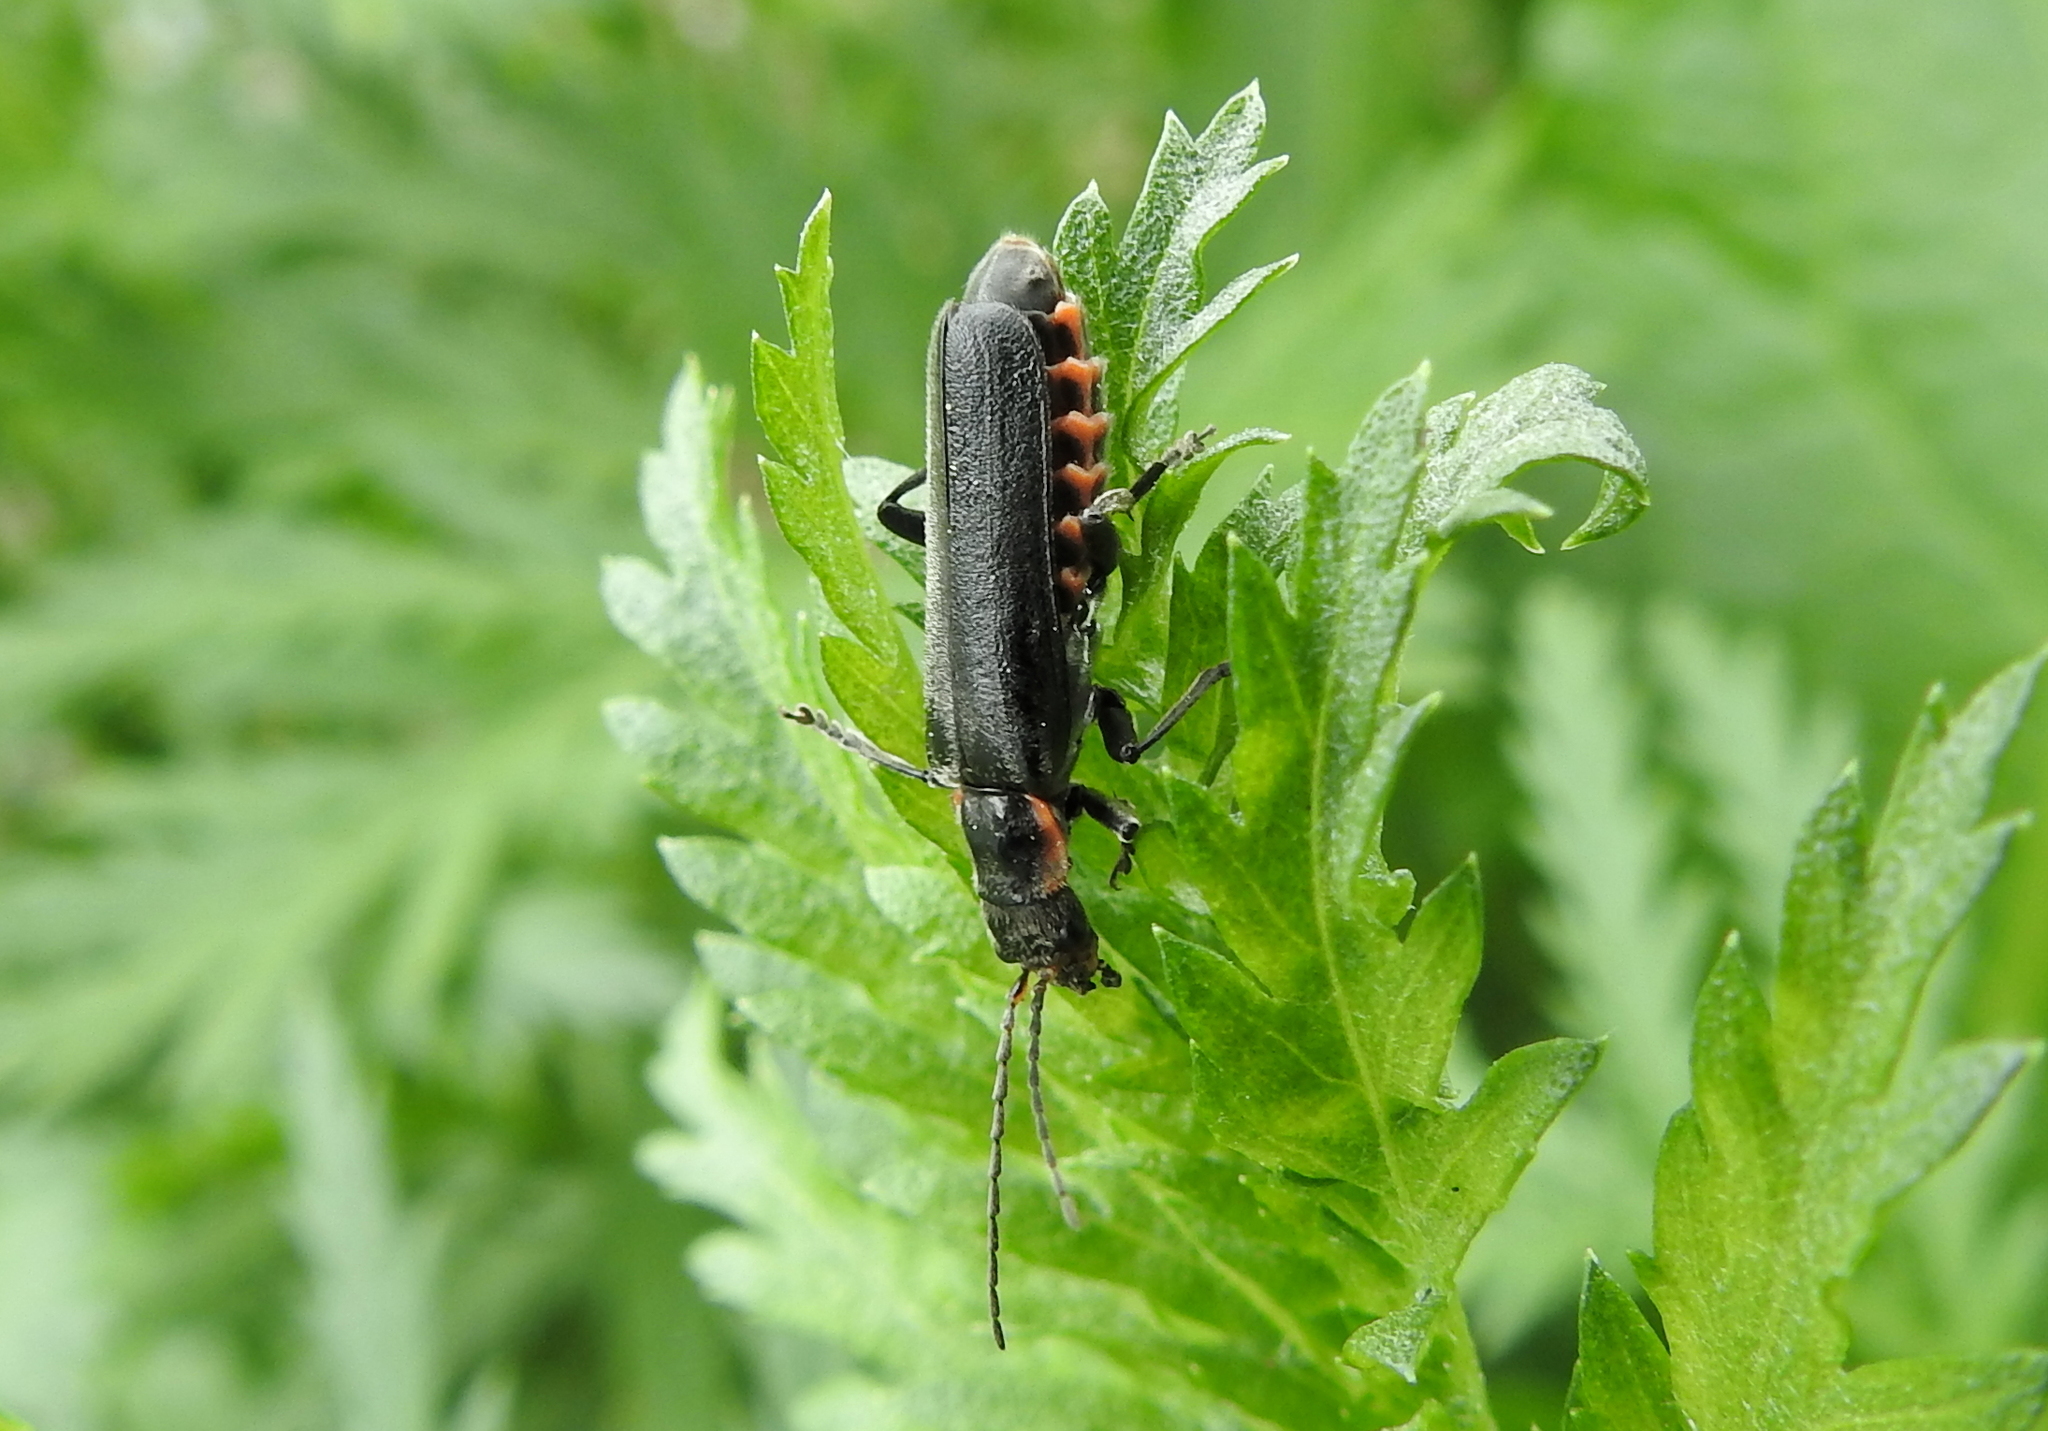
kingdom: Animalia
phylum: Arthropoda
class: Insecta
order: Coleoptera
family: Cantharidae
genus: Cantharis
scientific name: Cantharis obscura
